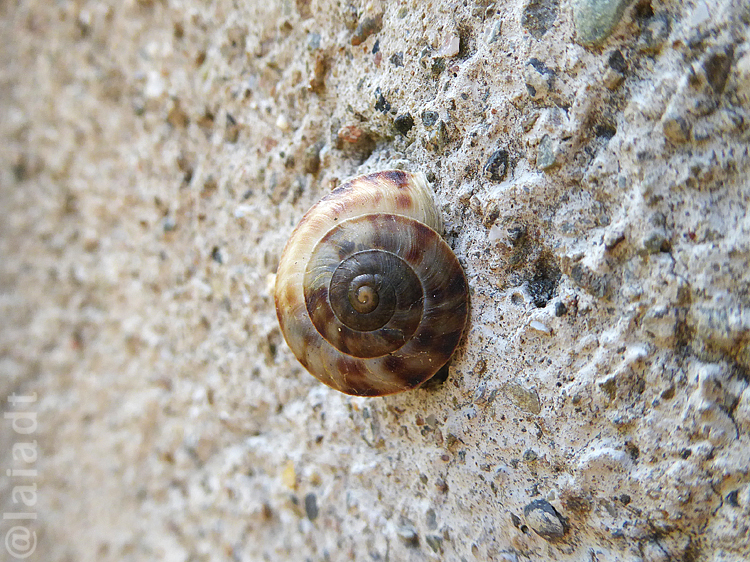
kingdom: Animalia
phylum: Mollusca
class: Gastropoda
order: Stylommatophora
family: Helicidae
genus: Helicigona
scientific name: Helicigona lapicida
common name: Lapidary snail
